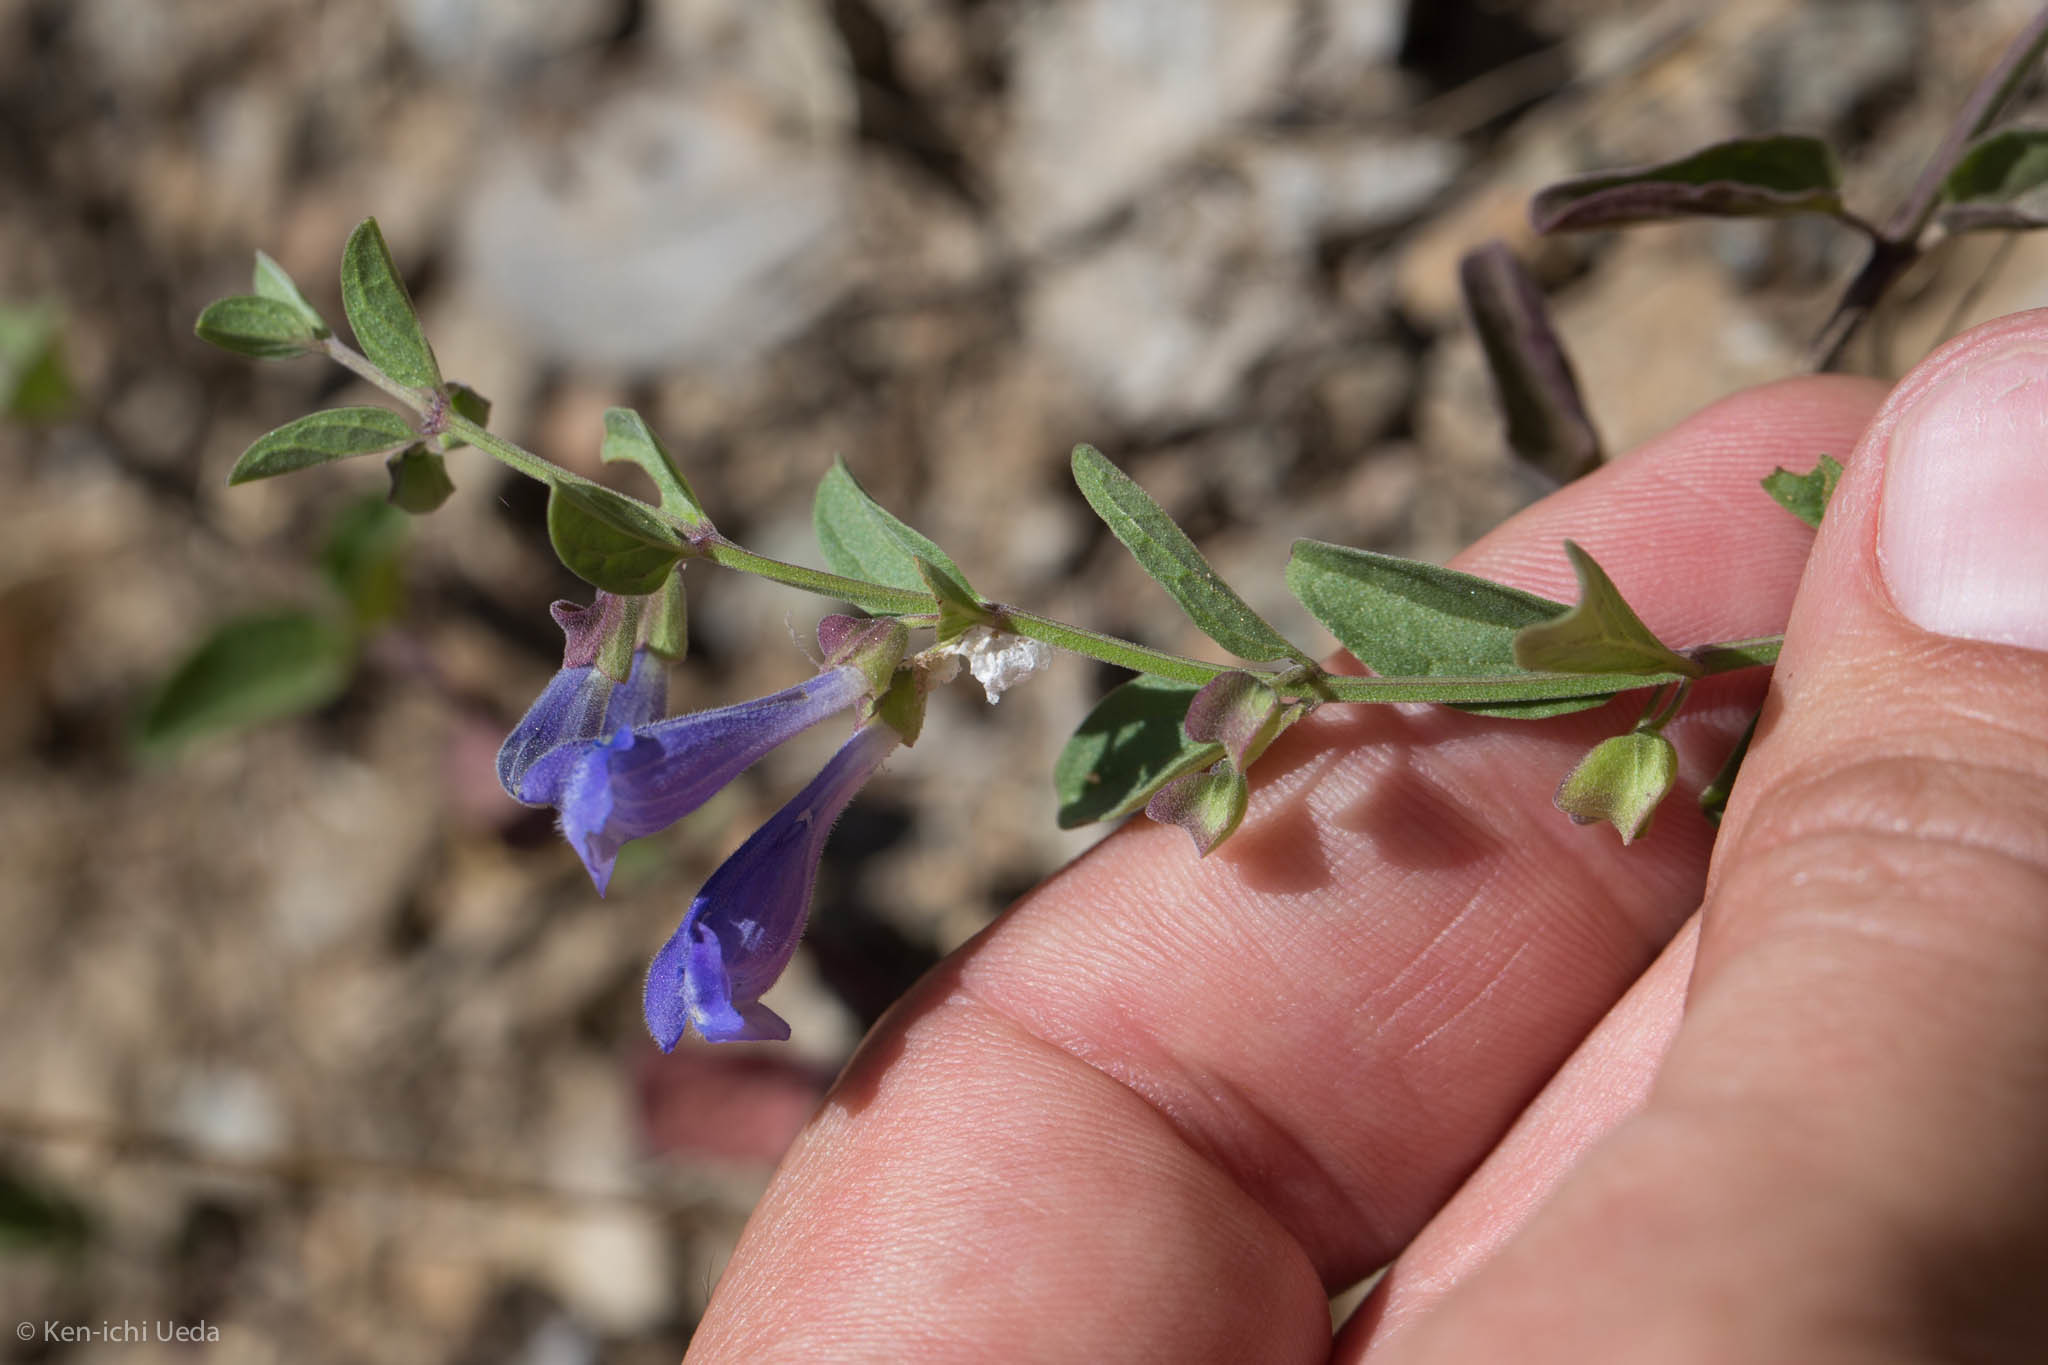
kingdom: Plantae
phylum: Tracheophyta
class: Magnoliopsida
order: Lamiales
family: Lamiaceae
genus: Scutellaria
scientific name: Scutellaria antirrhinoides
